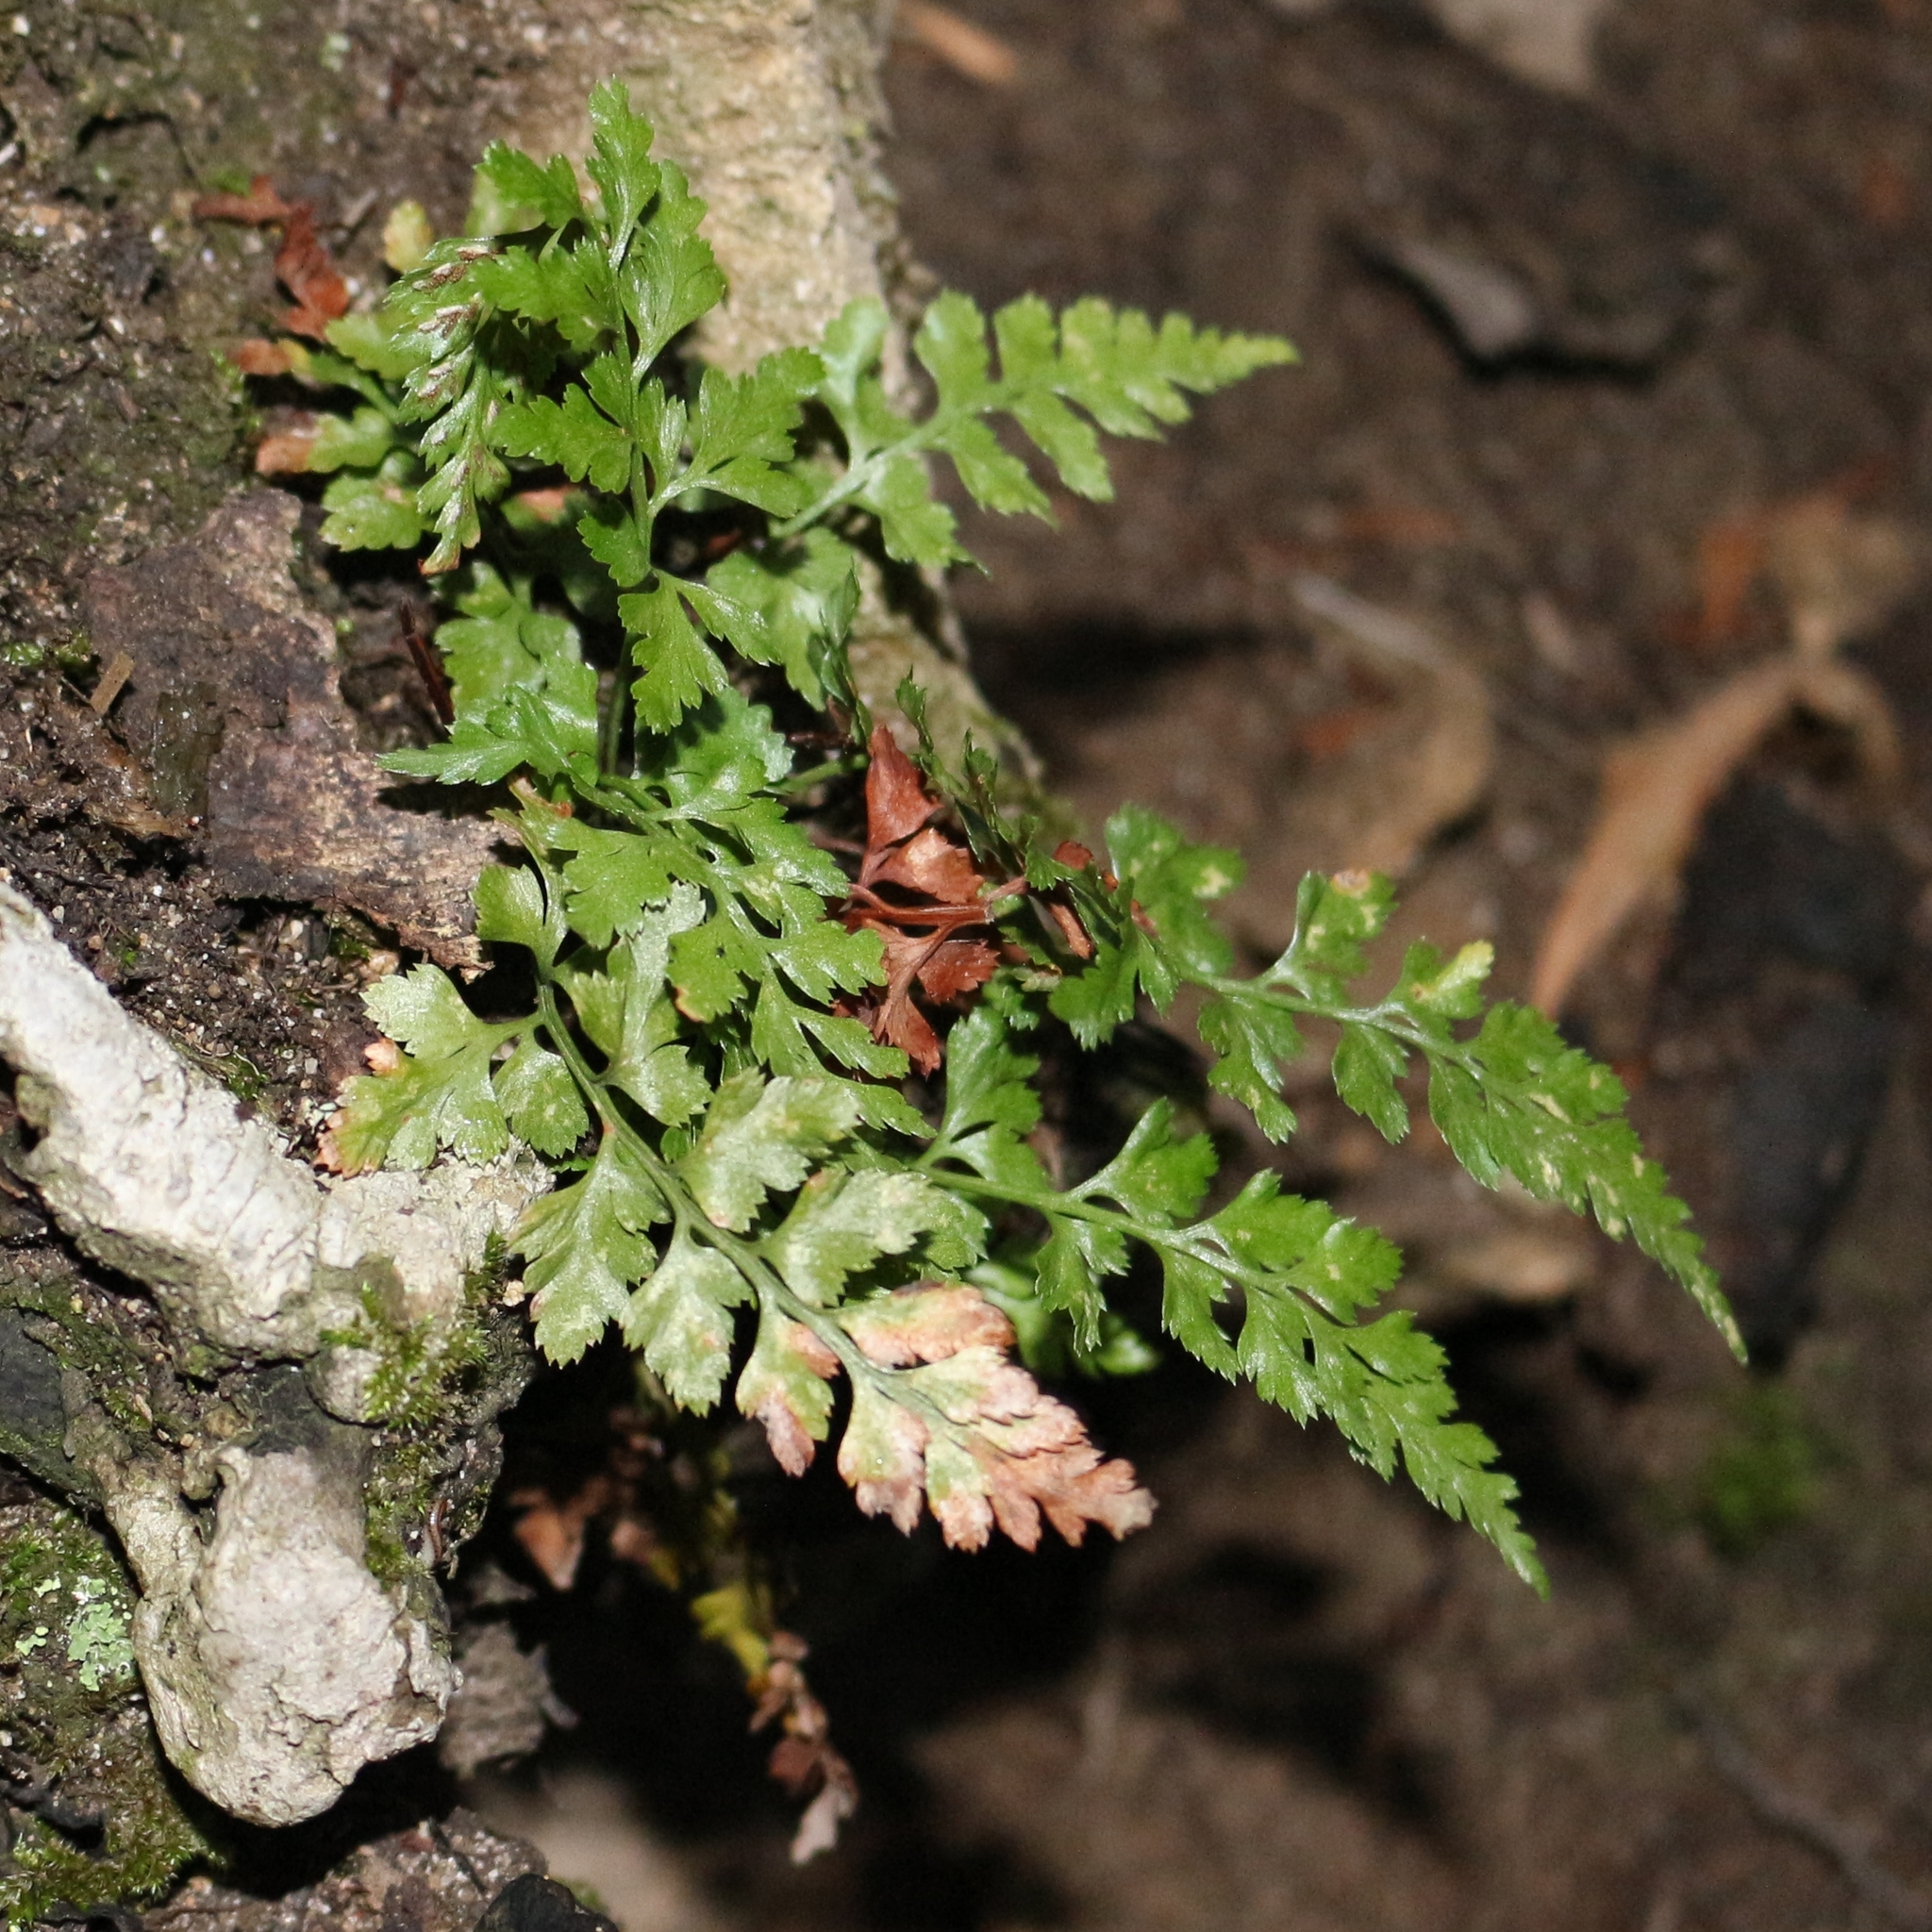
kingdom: Plantae
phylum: Tracheophyta
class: Polypodiopsida
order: Polypodiales
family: Aspleniaceae
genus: Asplenium
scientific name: Asplenium adiantum-nigrum
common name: Black spleenwort
